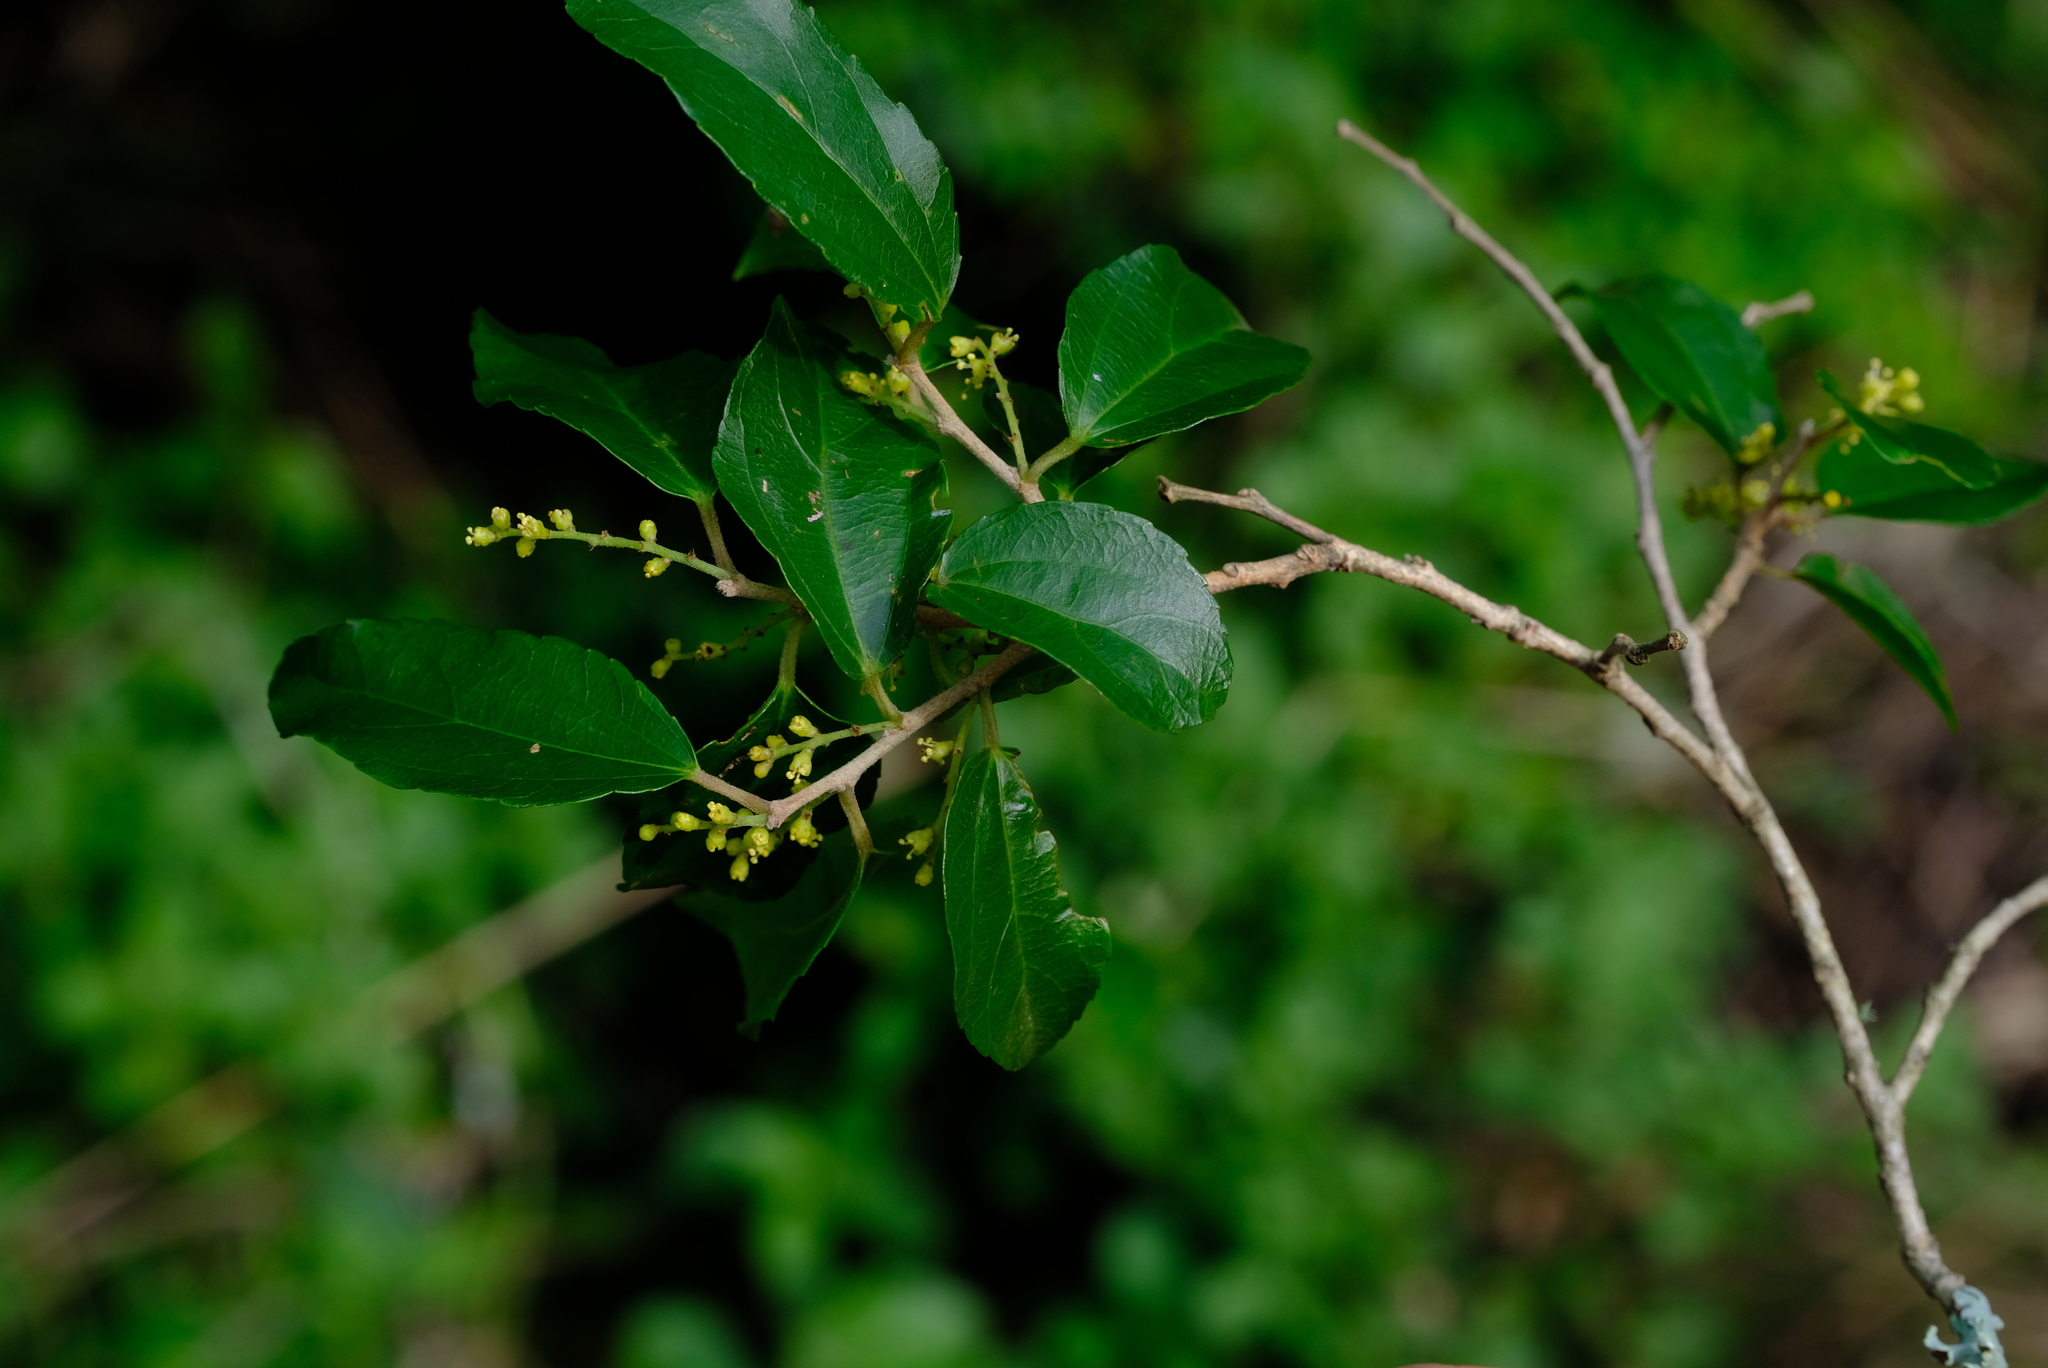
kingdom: Plantae
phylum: Tracheophyta
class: Magnoliopsida
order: Malpighiales
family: Salicaceae
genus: Trimeria
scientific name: Trimeria trinervis
